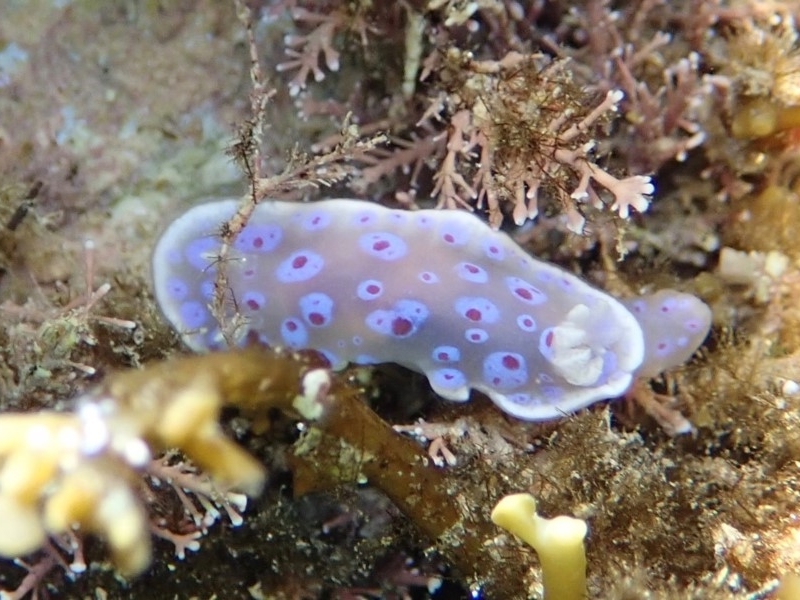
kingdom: Animalia
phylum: Mollusca
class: Gastropoda
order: Nudibranchia
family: Chromodorididae
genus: Goniobranchus
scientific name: Goniobranchus thompsoni
